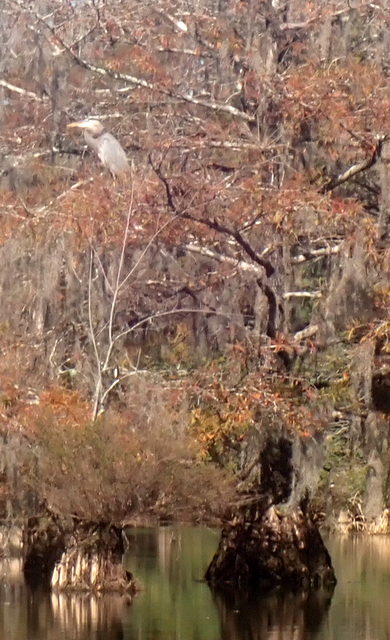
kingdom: Animalia
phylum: Chordata
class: Aves
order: Pelecaniformes
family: Ardeidae
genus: Ardea
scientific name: Ardea herodias
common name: Great blue heron
